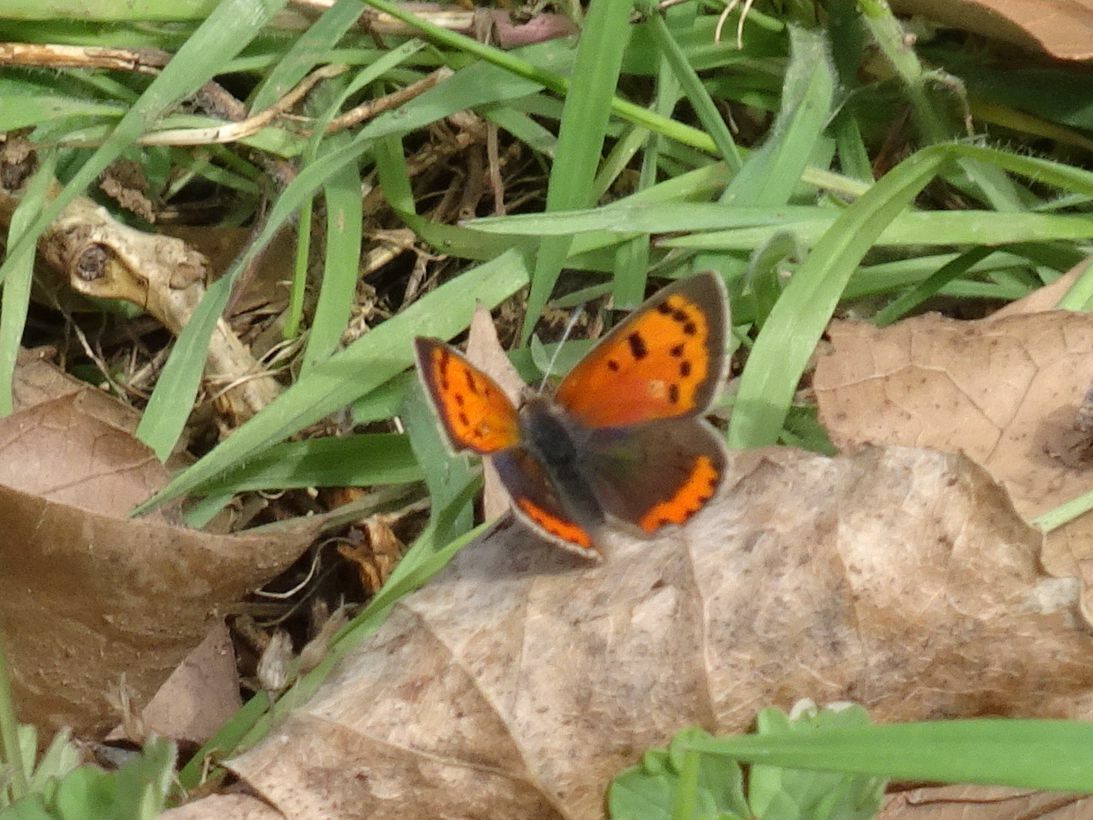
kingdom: Animalia
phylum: Arthropoda
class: Insecta
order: Lepidoptera
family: Lycaenidae
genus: Lycaena
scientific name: Lycaena phlaeas
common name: Small copper
